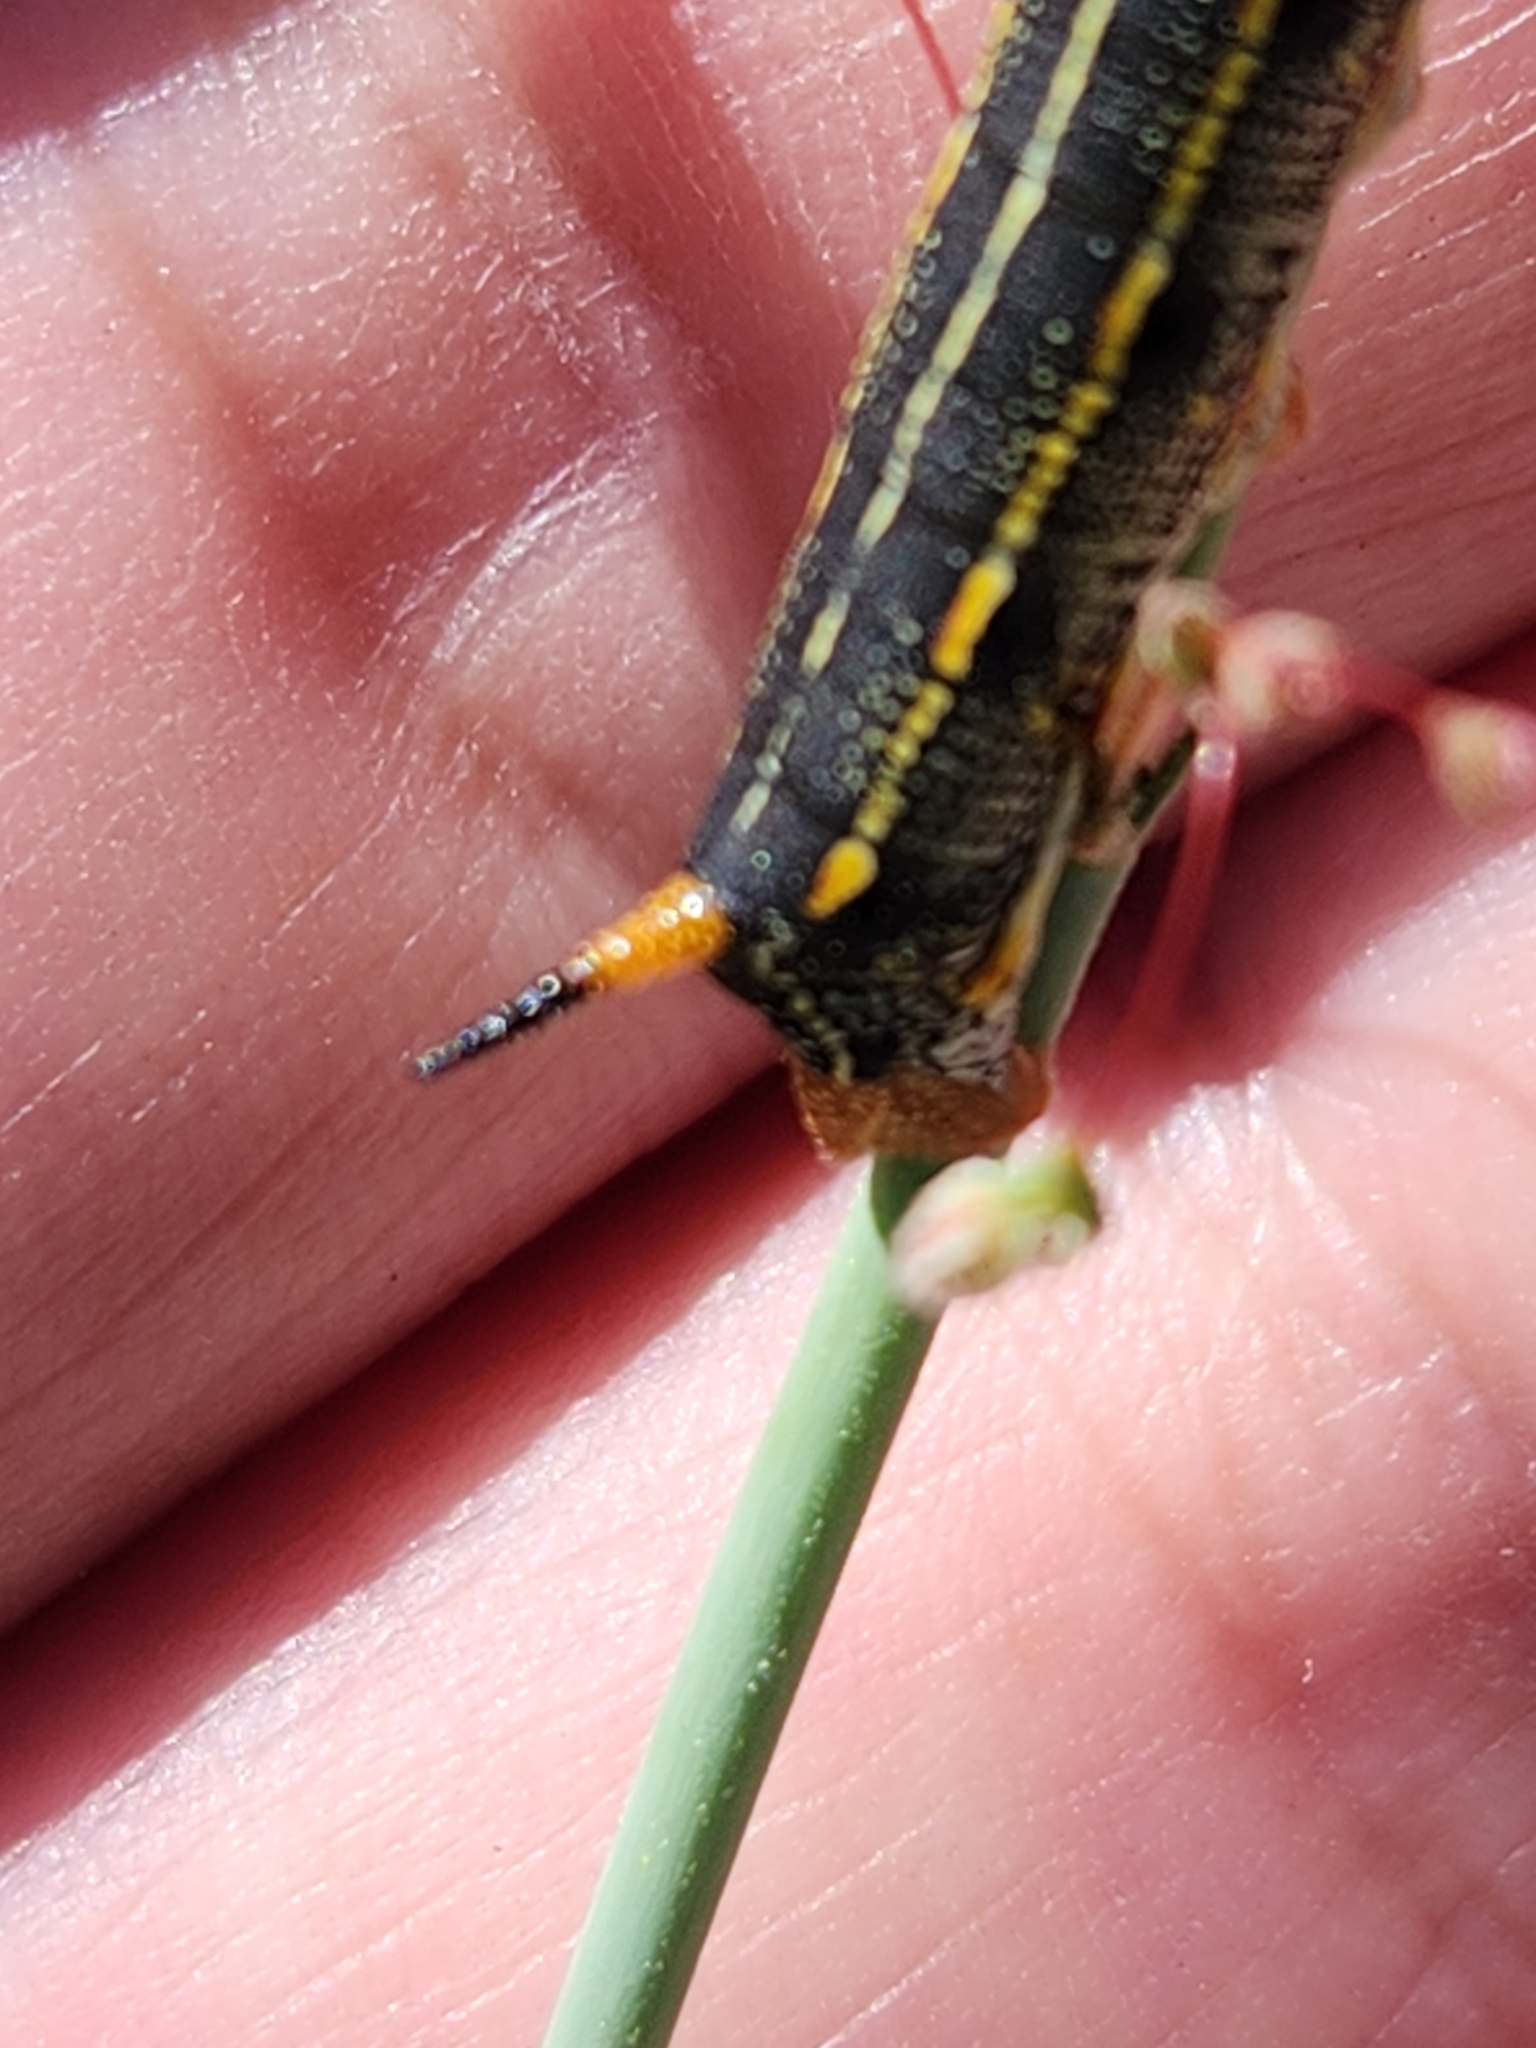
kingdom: Animalia
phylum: Arthropoda
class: Insecta
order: Lepidoptera
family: Sphingidae
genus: Hyles
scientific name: Hyles lineata
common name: White-lined sphinx
